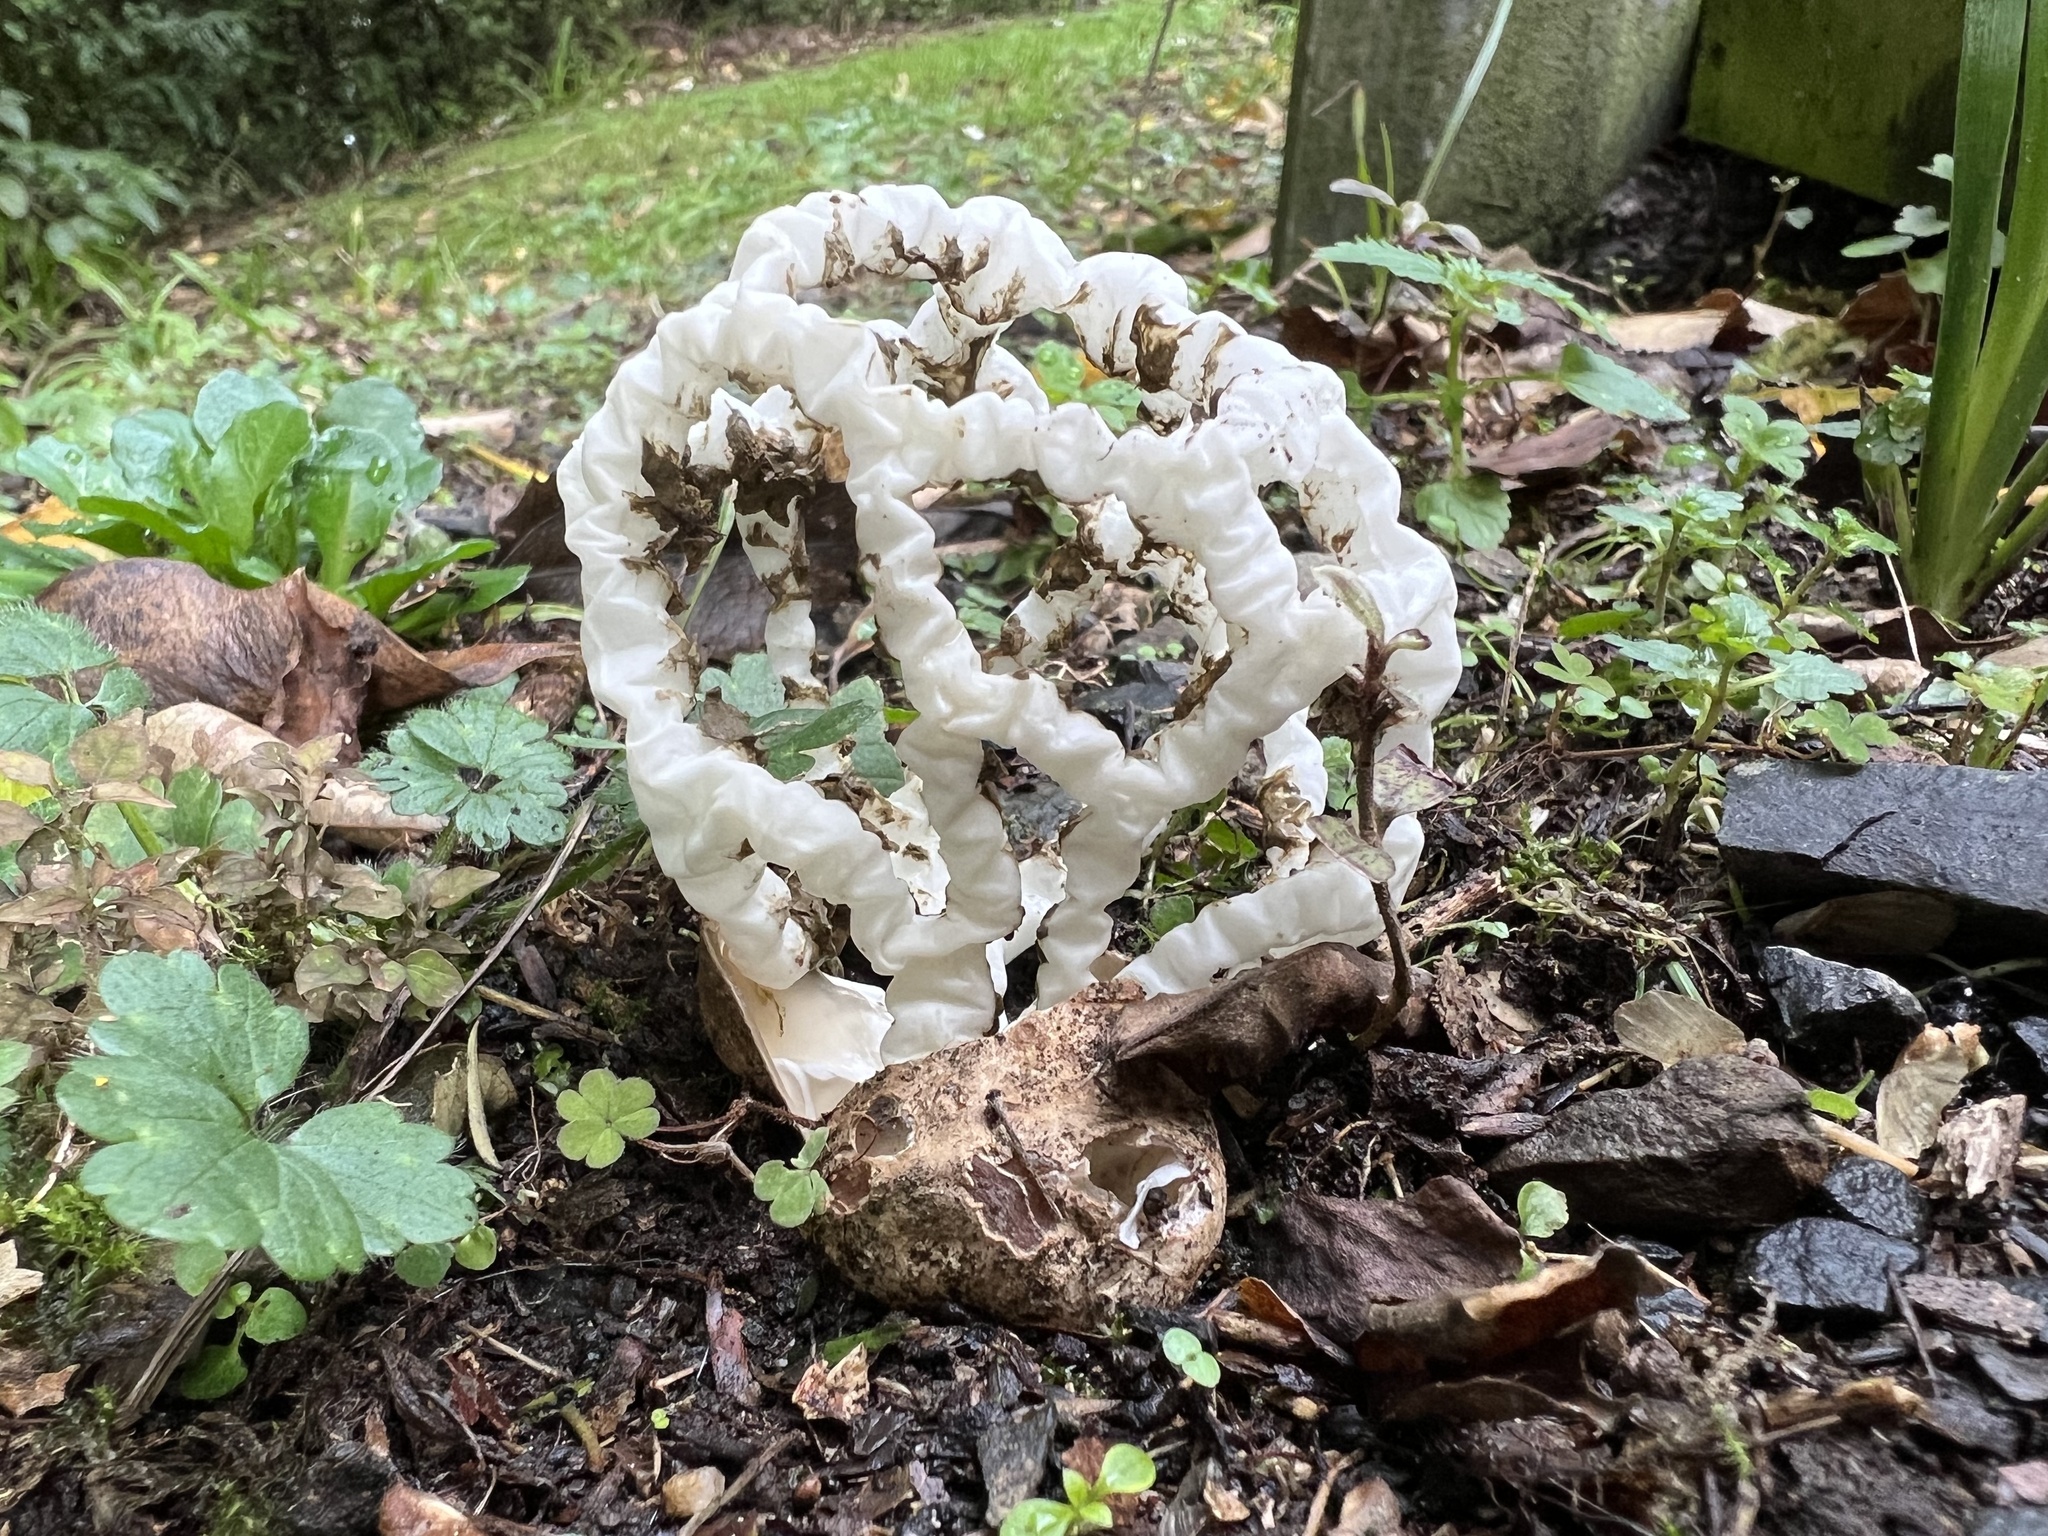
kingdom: Fungi
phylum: Basidiomycota
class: Agaricomycetes
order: Phallales
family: Phallaceae
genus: Ileodictyon
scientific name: Ileodictyon cibarium
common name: Basket fungus
